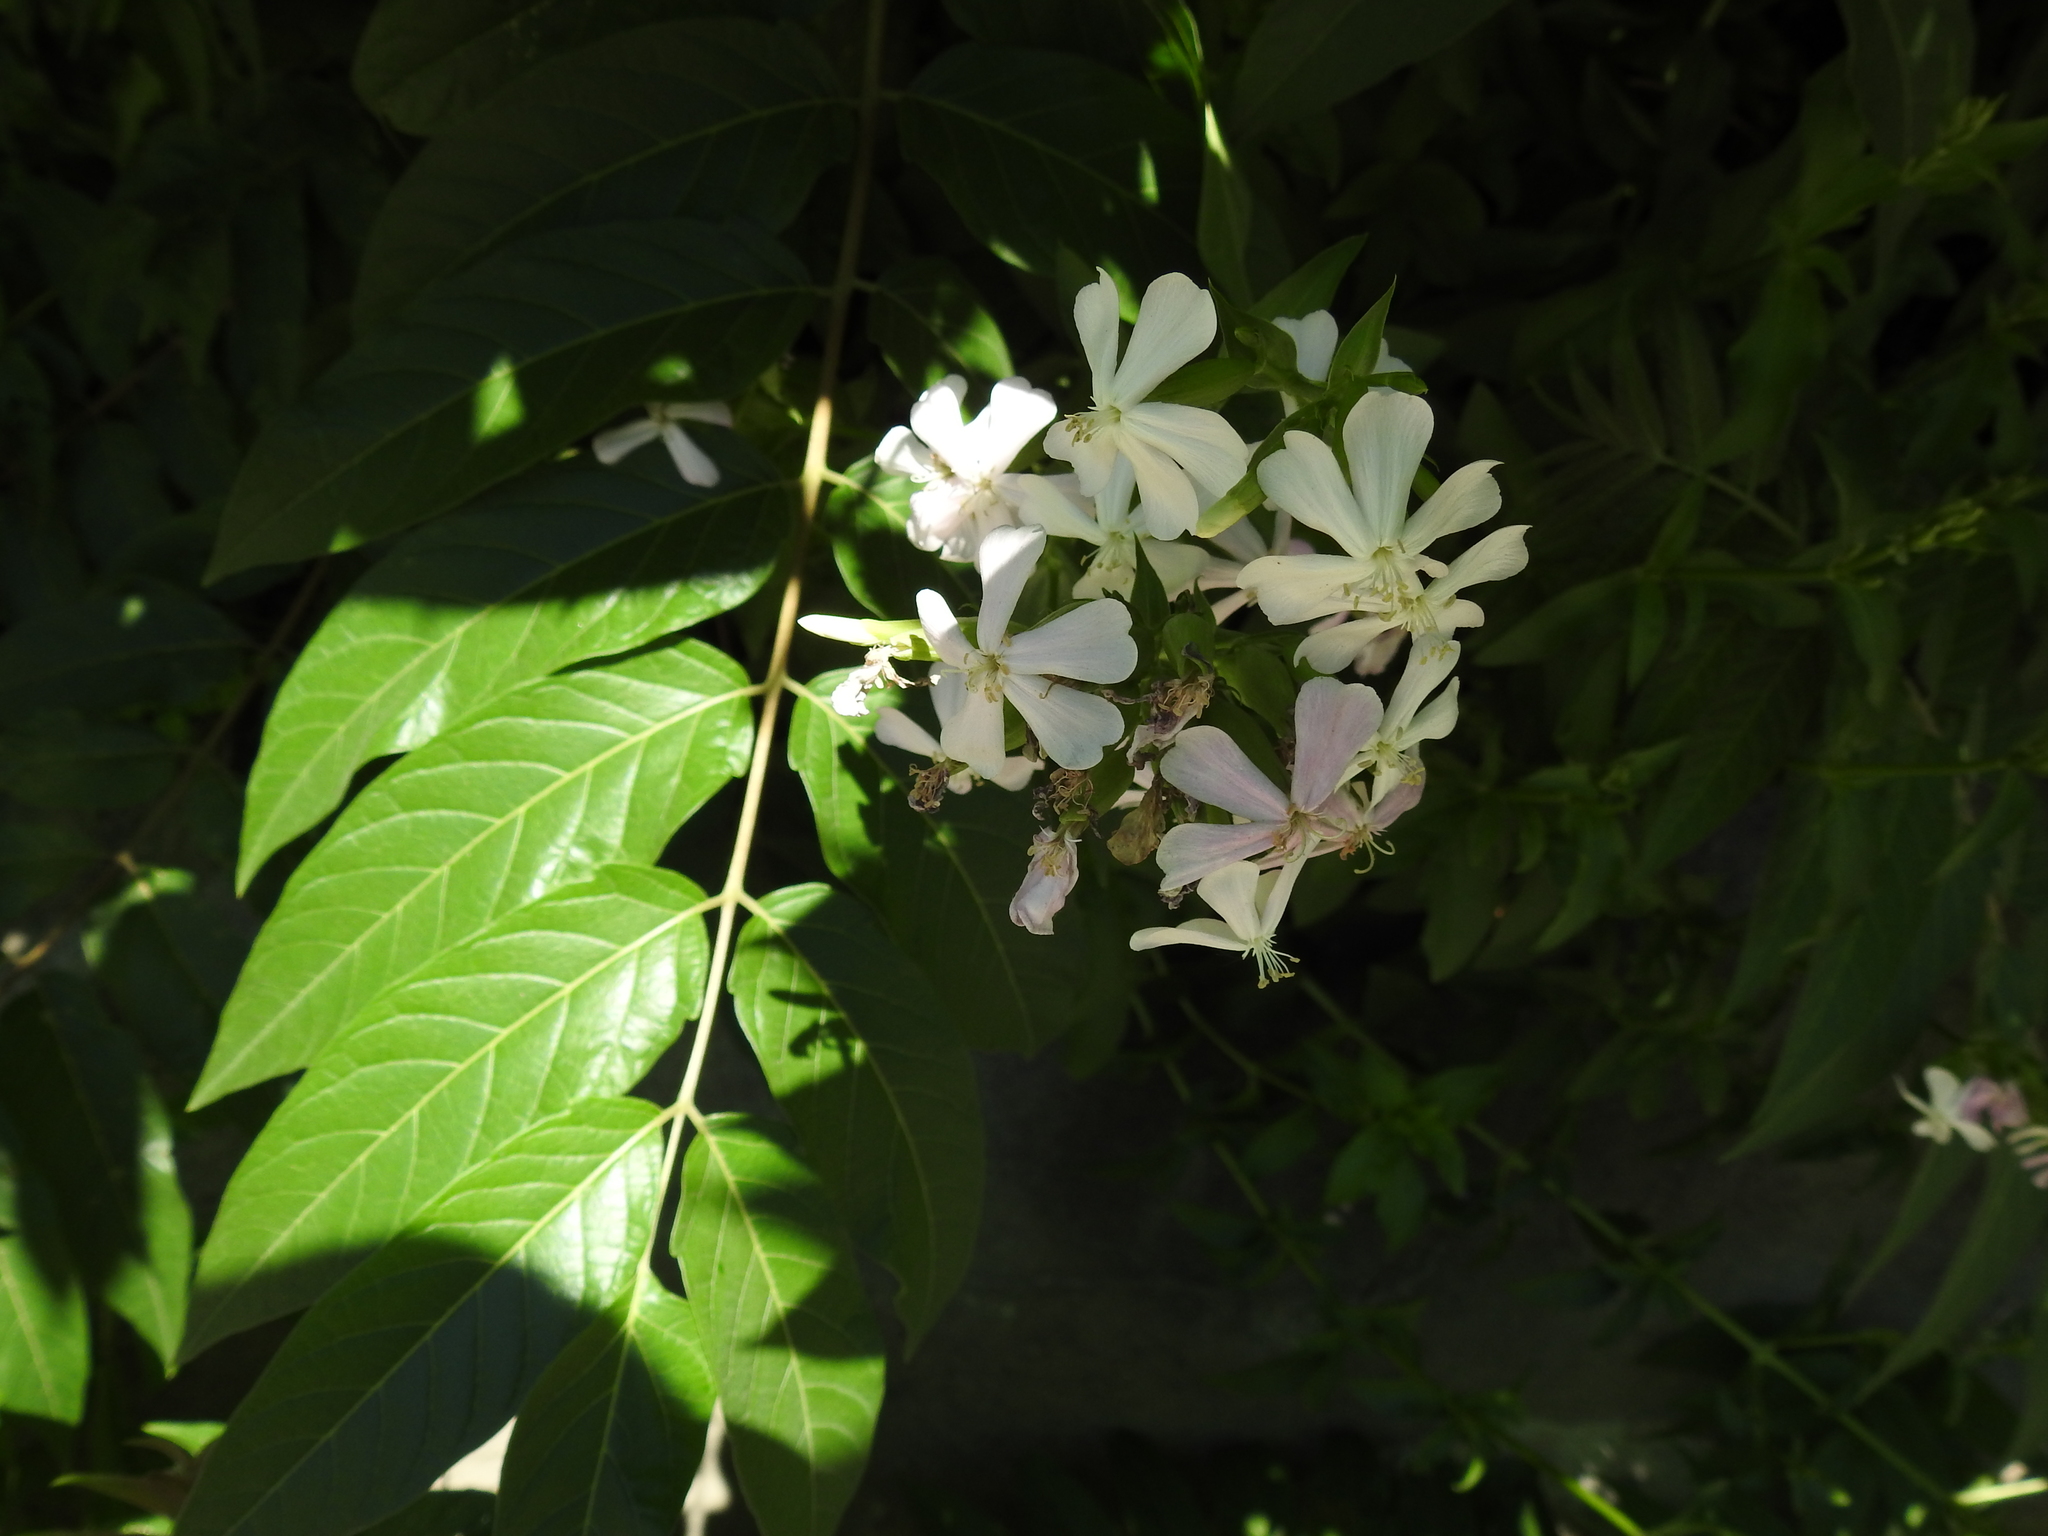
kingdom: Plantae
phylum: Tracheophyta
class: Magnoliopsida
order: Caryophyllales
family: Caryophyllaceae
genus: Saponaria
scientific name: Saponaria officinalis
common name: Soapwort
